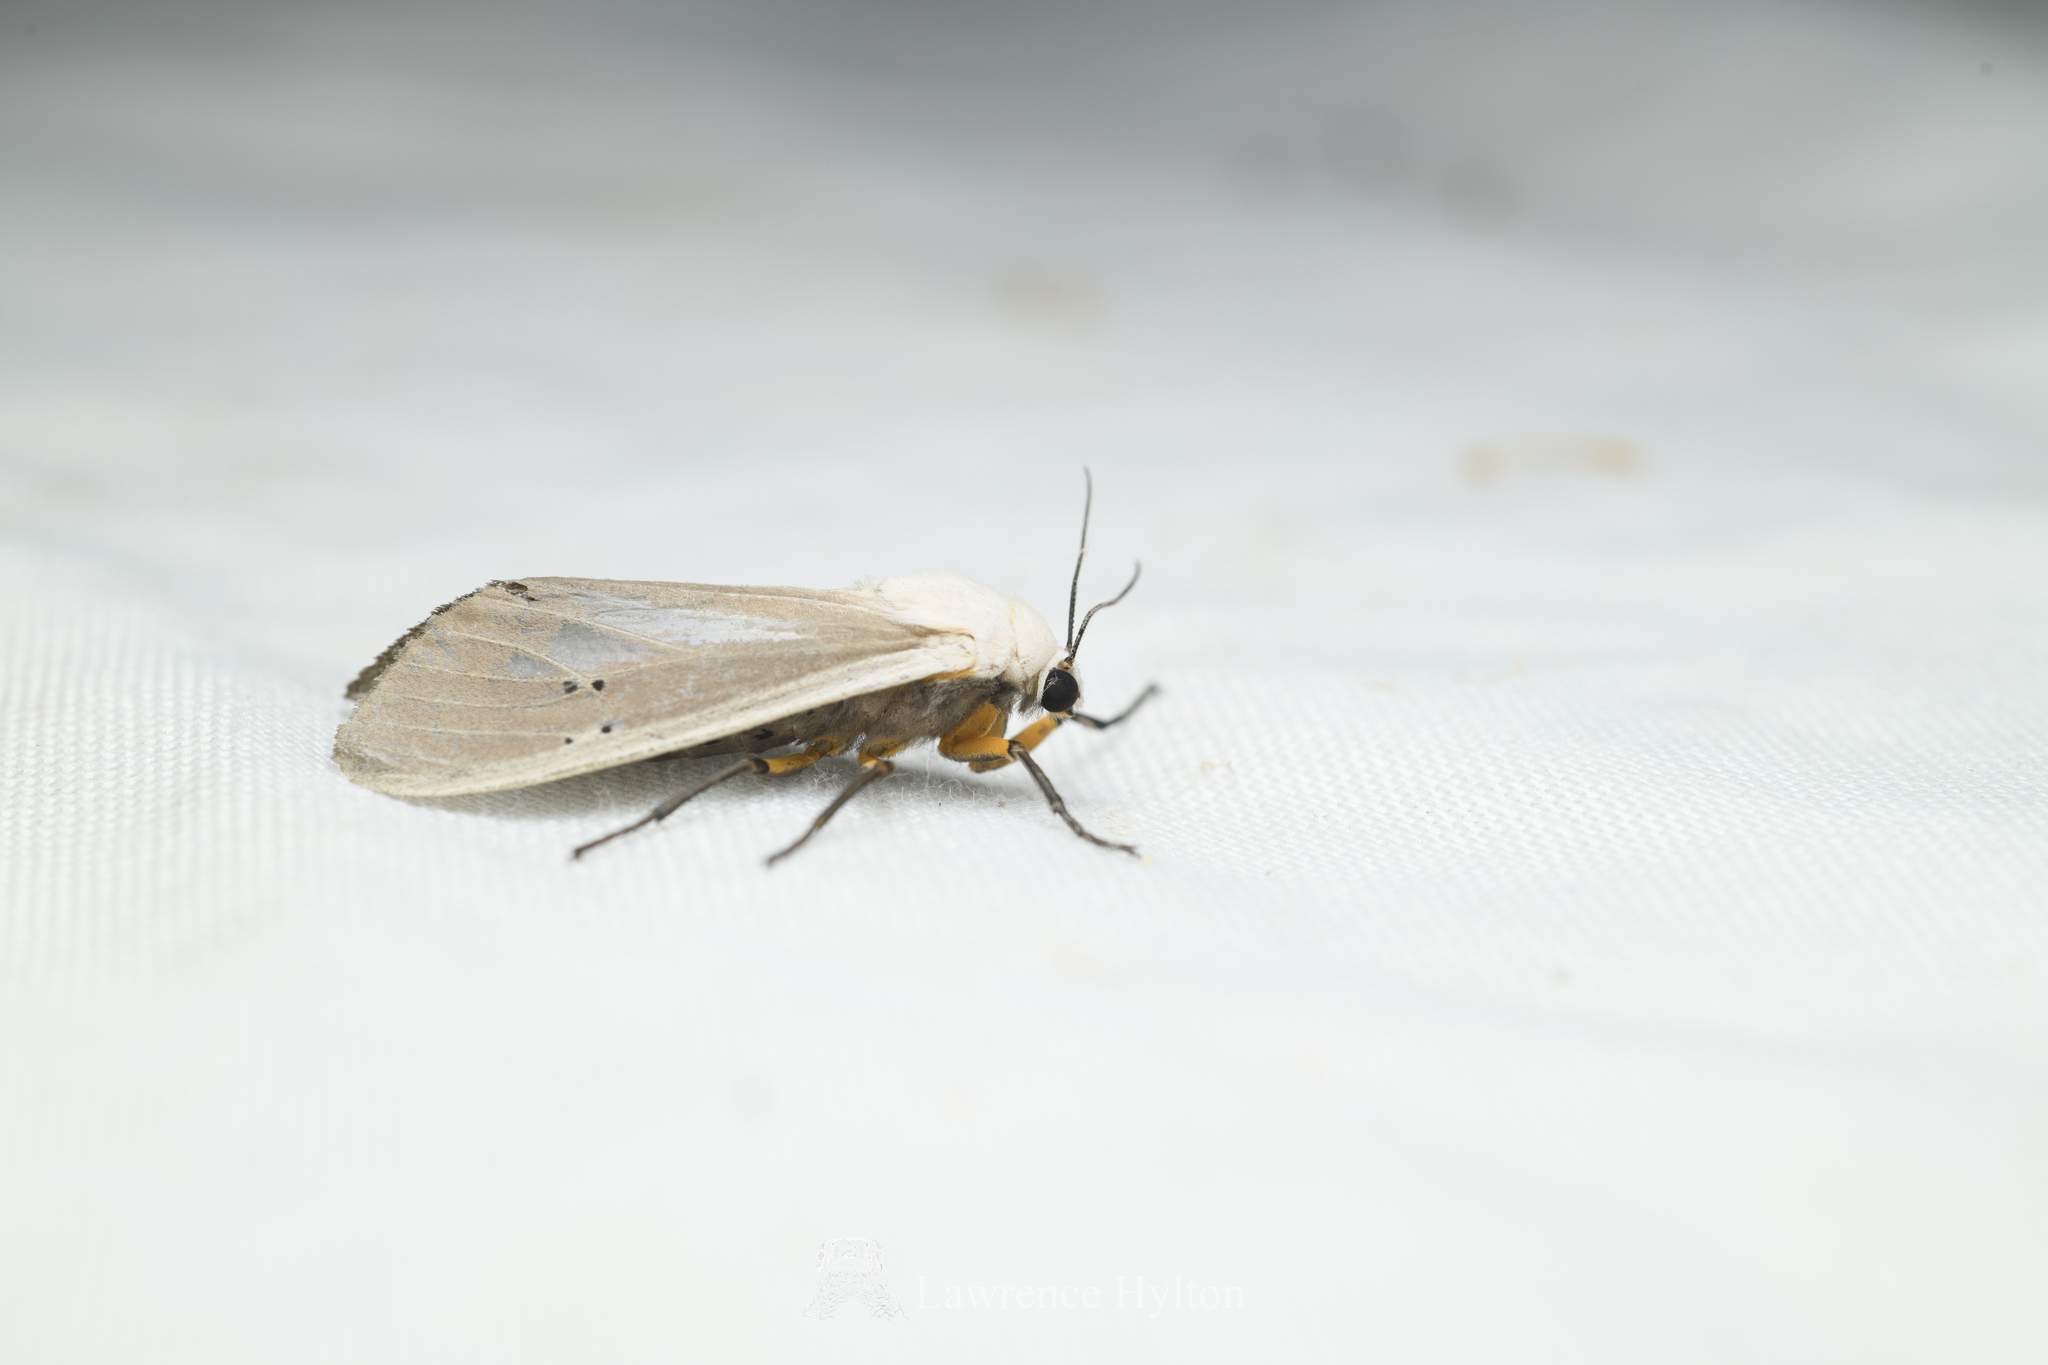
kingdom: Animalia
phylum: Arthropoda
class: Insecta
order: Lepidoptera
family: Erebidae
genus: Creatonotos
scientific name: Creatonotos transiens
